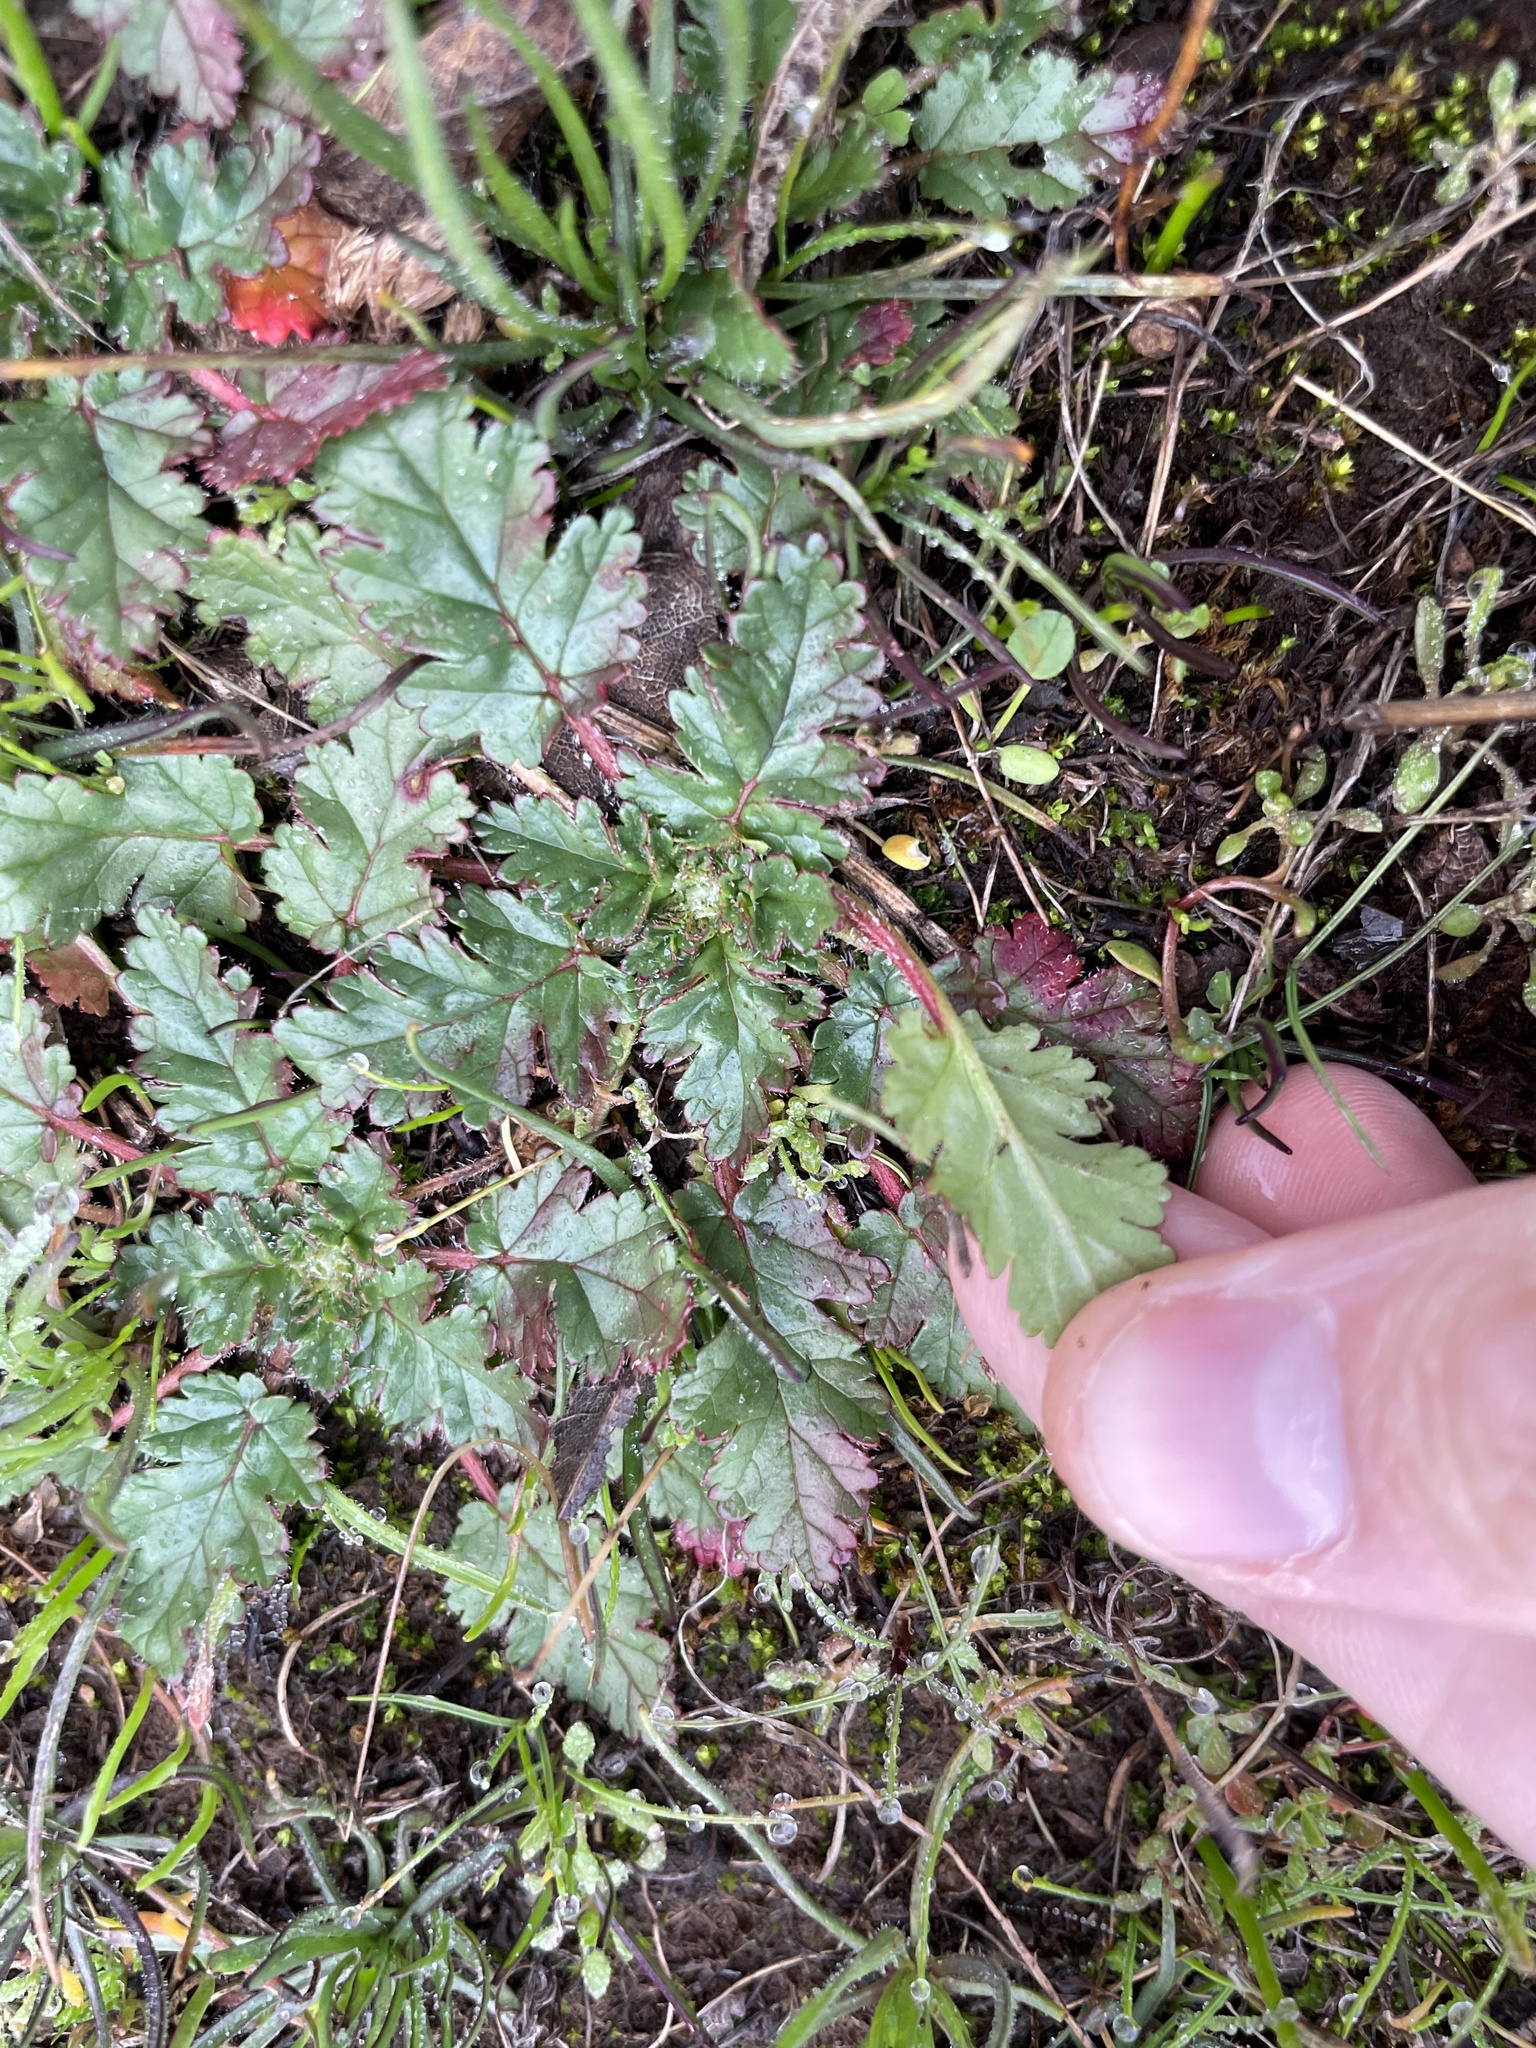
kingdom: Plantae
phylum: Tracheophyta
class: Magnoliopsida
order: Geraniales
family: Geraniaceae
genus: Erodium
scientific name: Erodium
